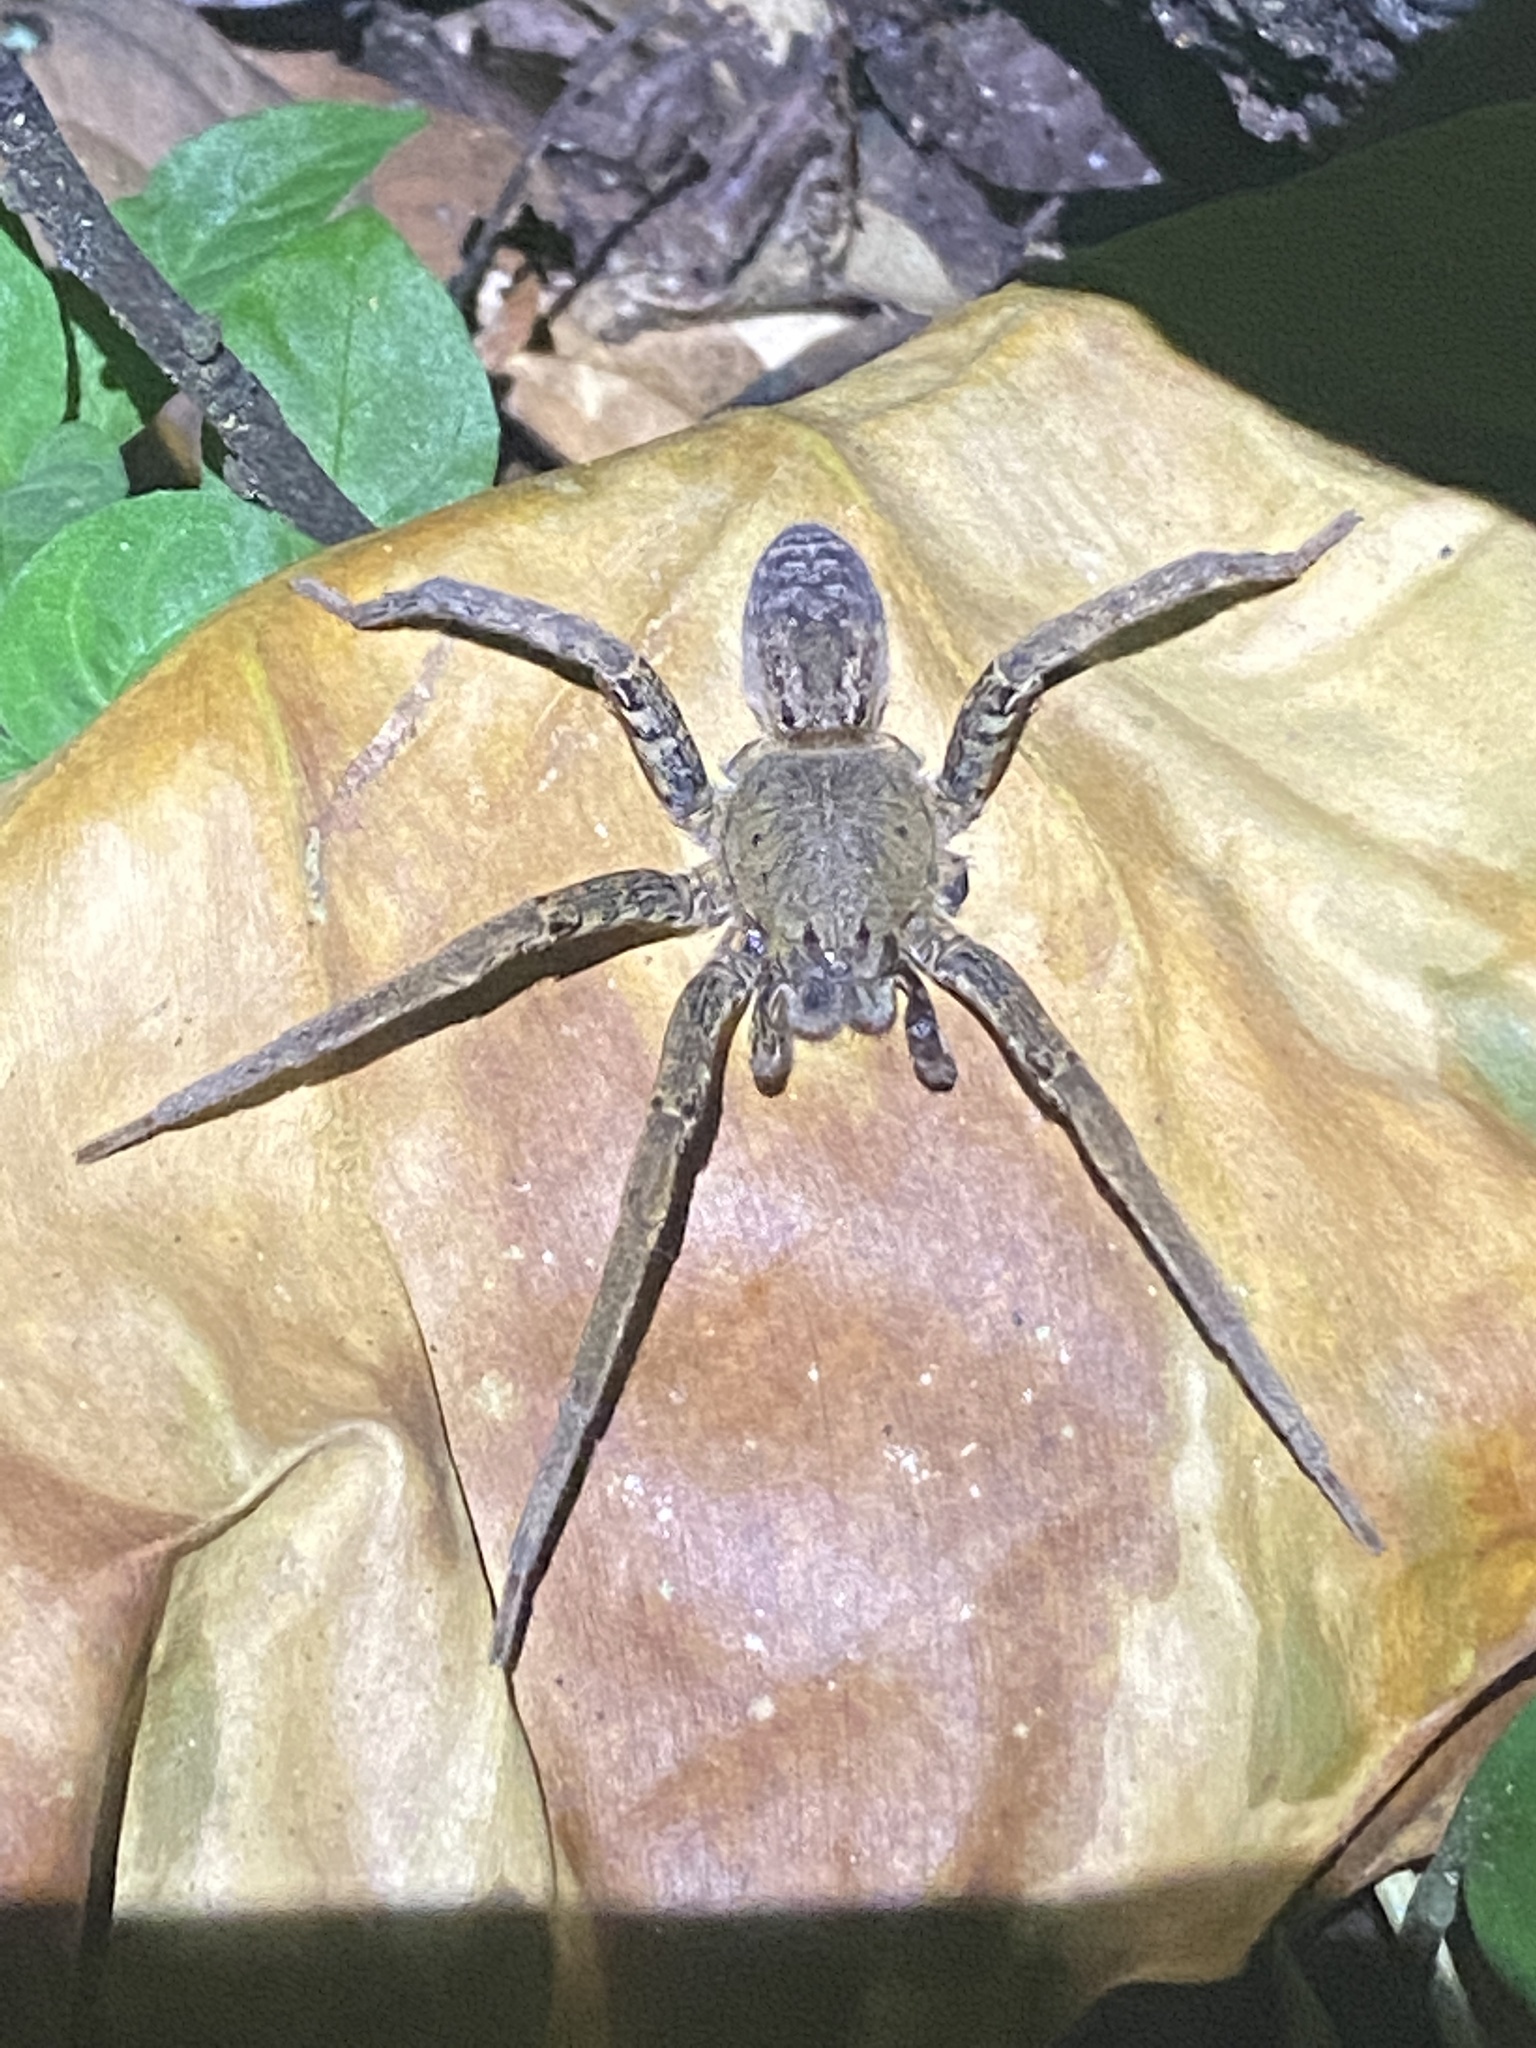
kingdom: Animalia
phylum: Arthropoda
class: Arachnida
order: Araneae
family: Ctenidae
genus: Ancylometes
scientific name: Ancylometes
